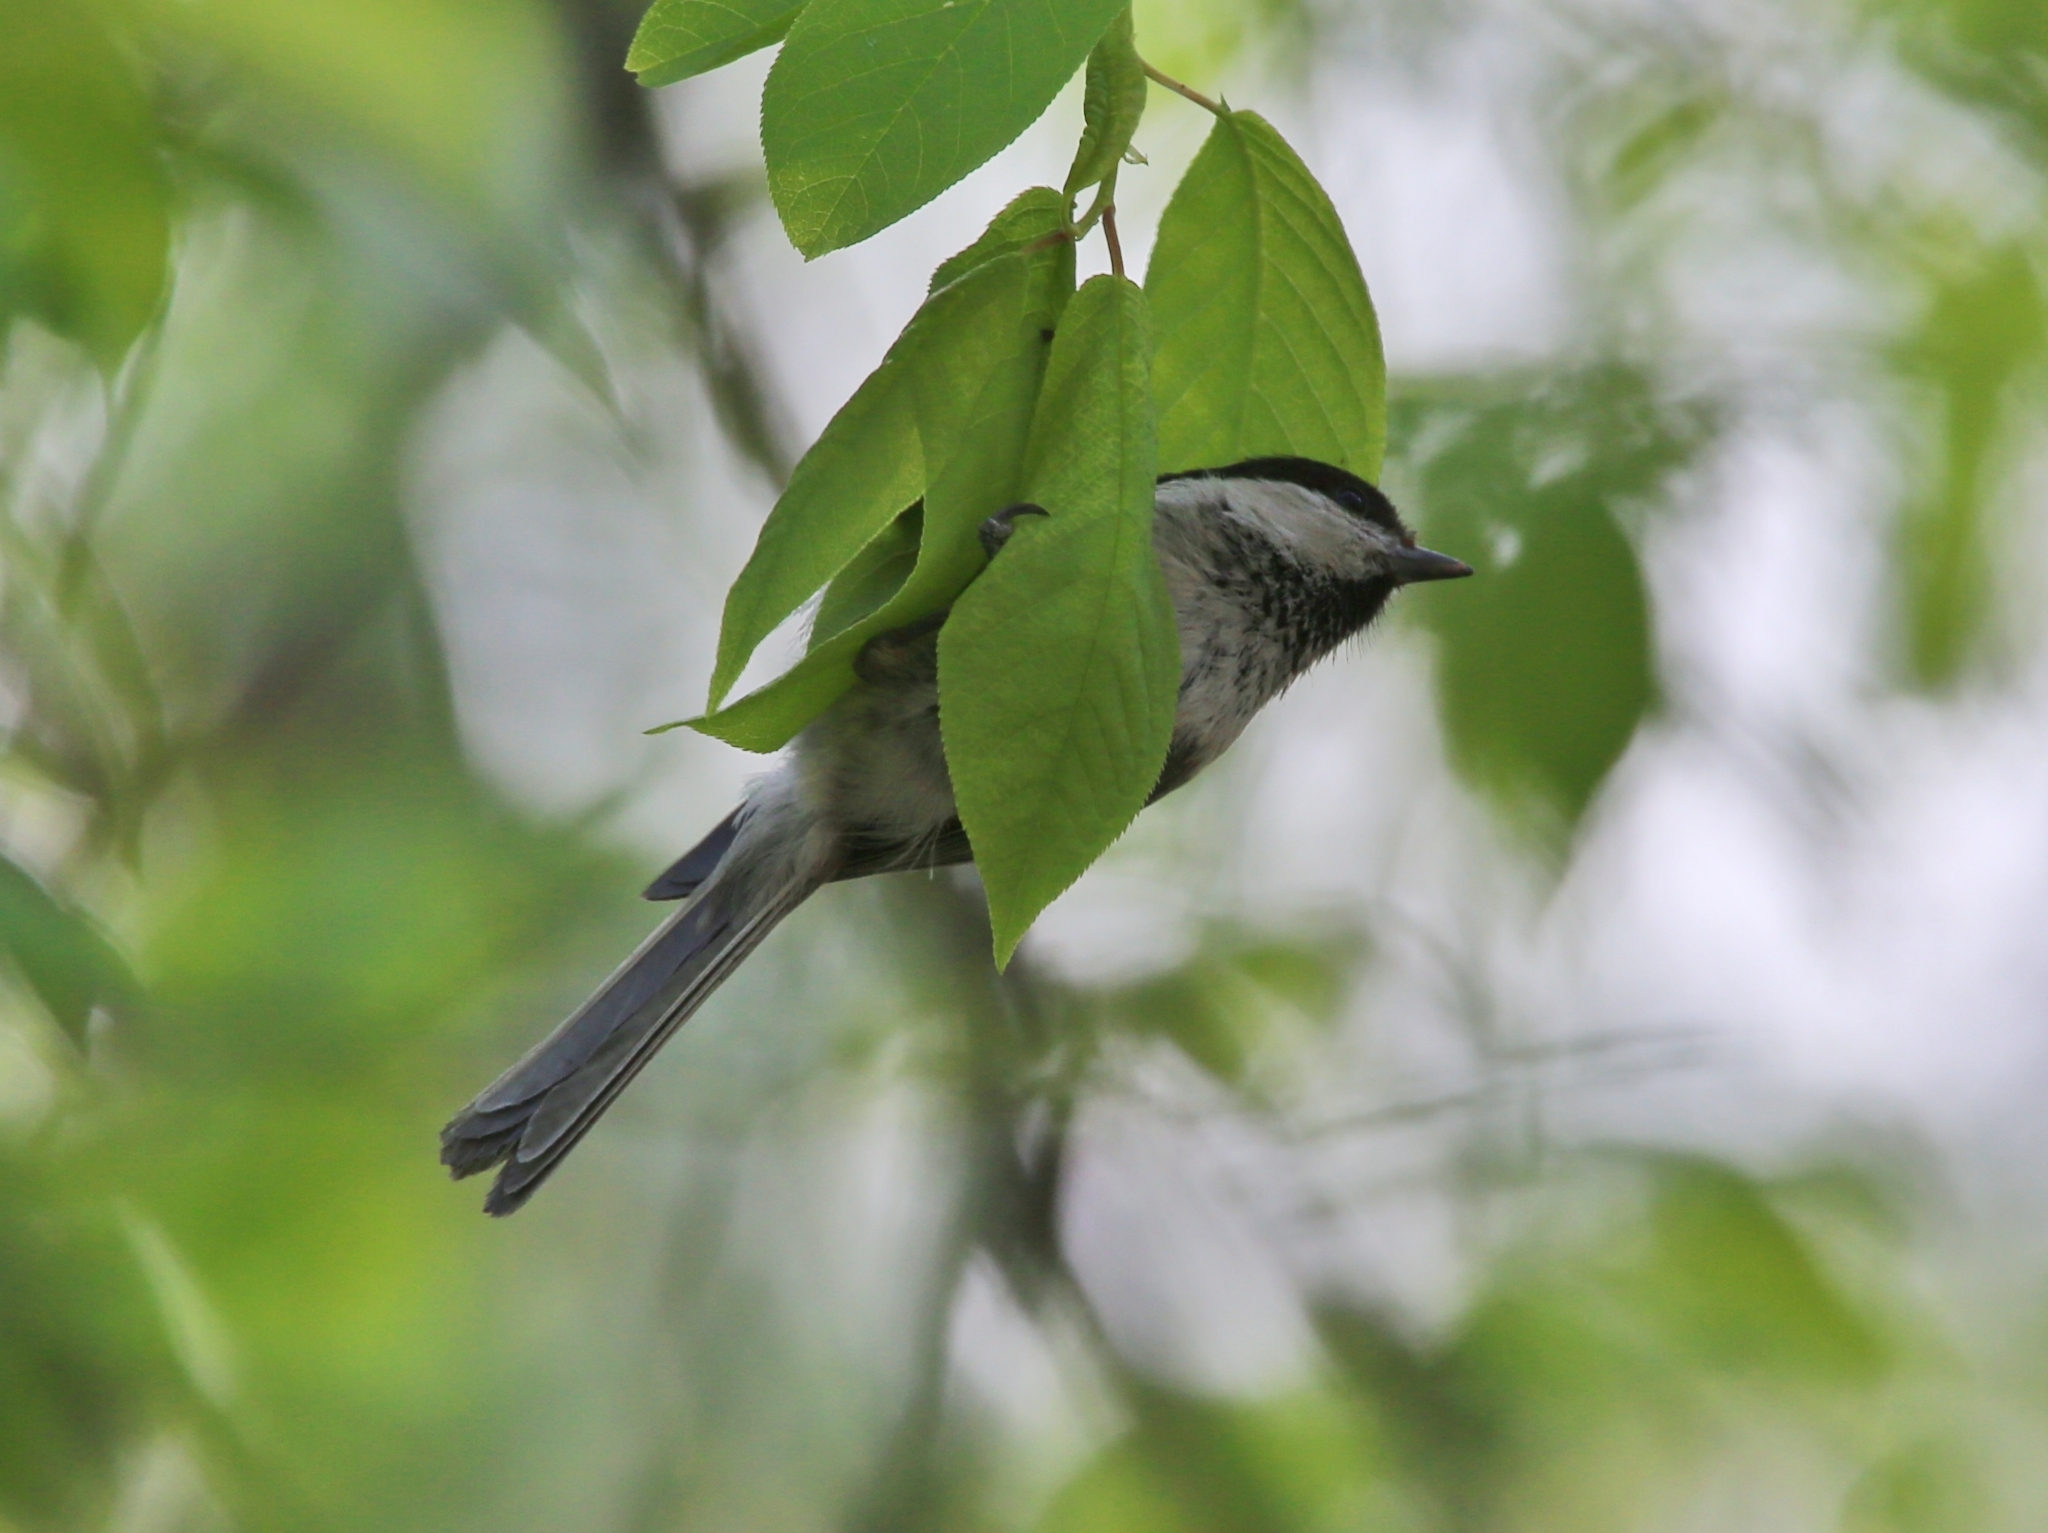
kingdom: Animalia
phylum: Chordata
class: Aves
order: Passeriformes
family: Paridae
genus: Poecile
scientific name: Poecile montanus
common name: Willow tit
